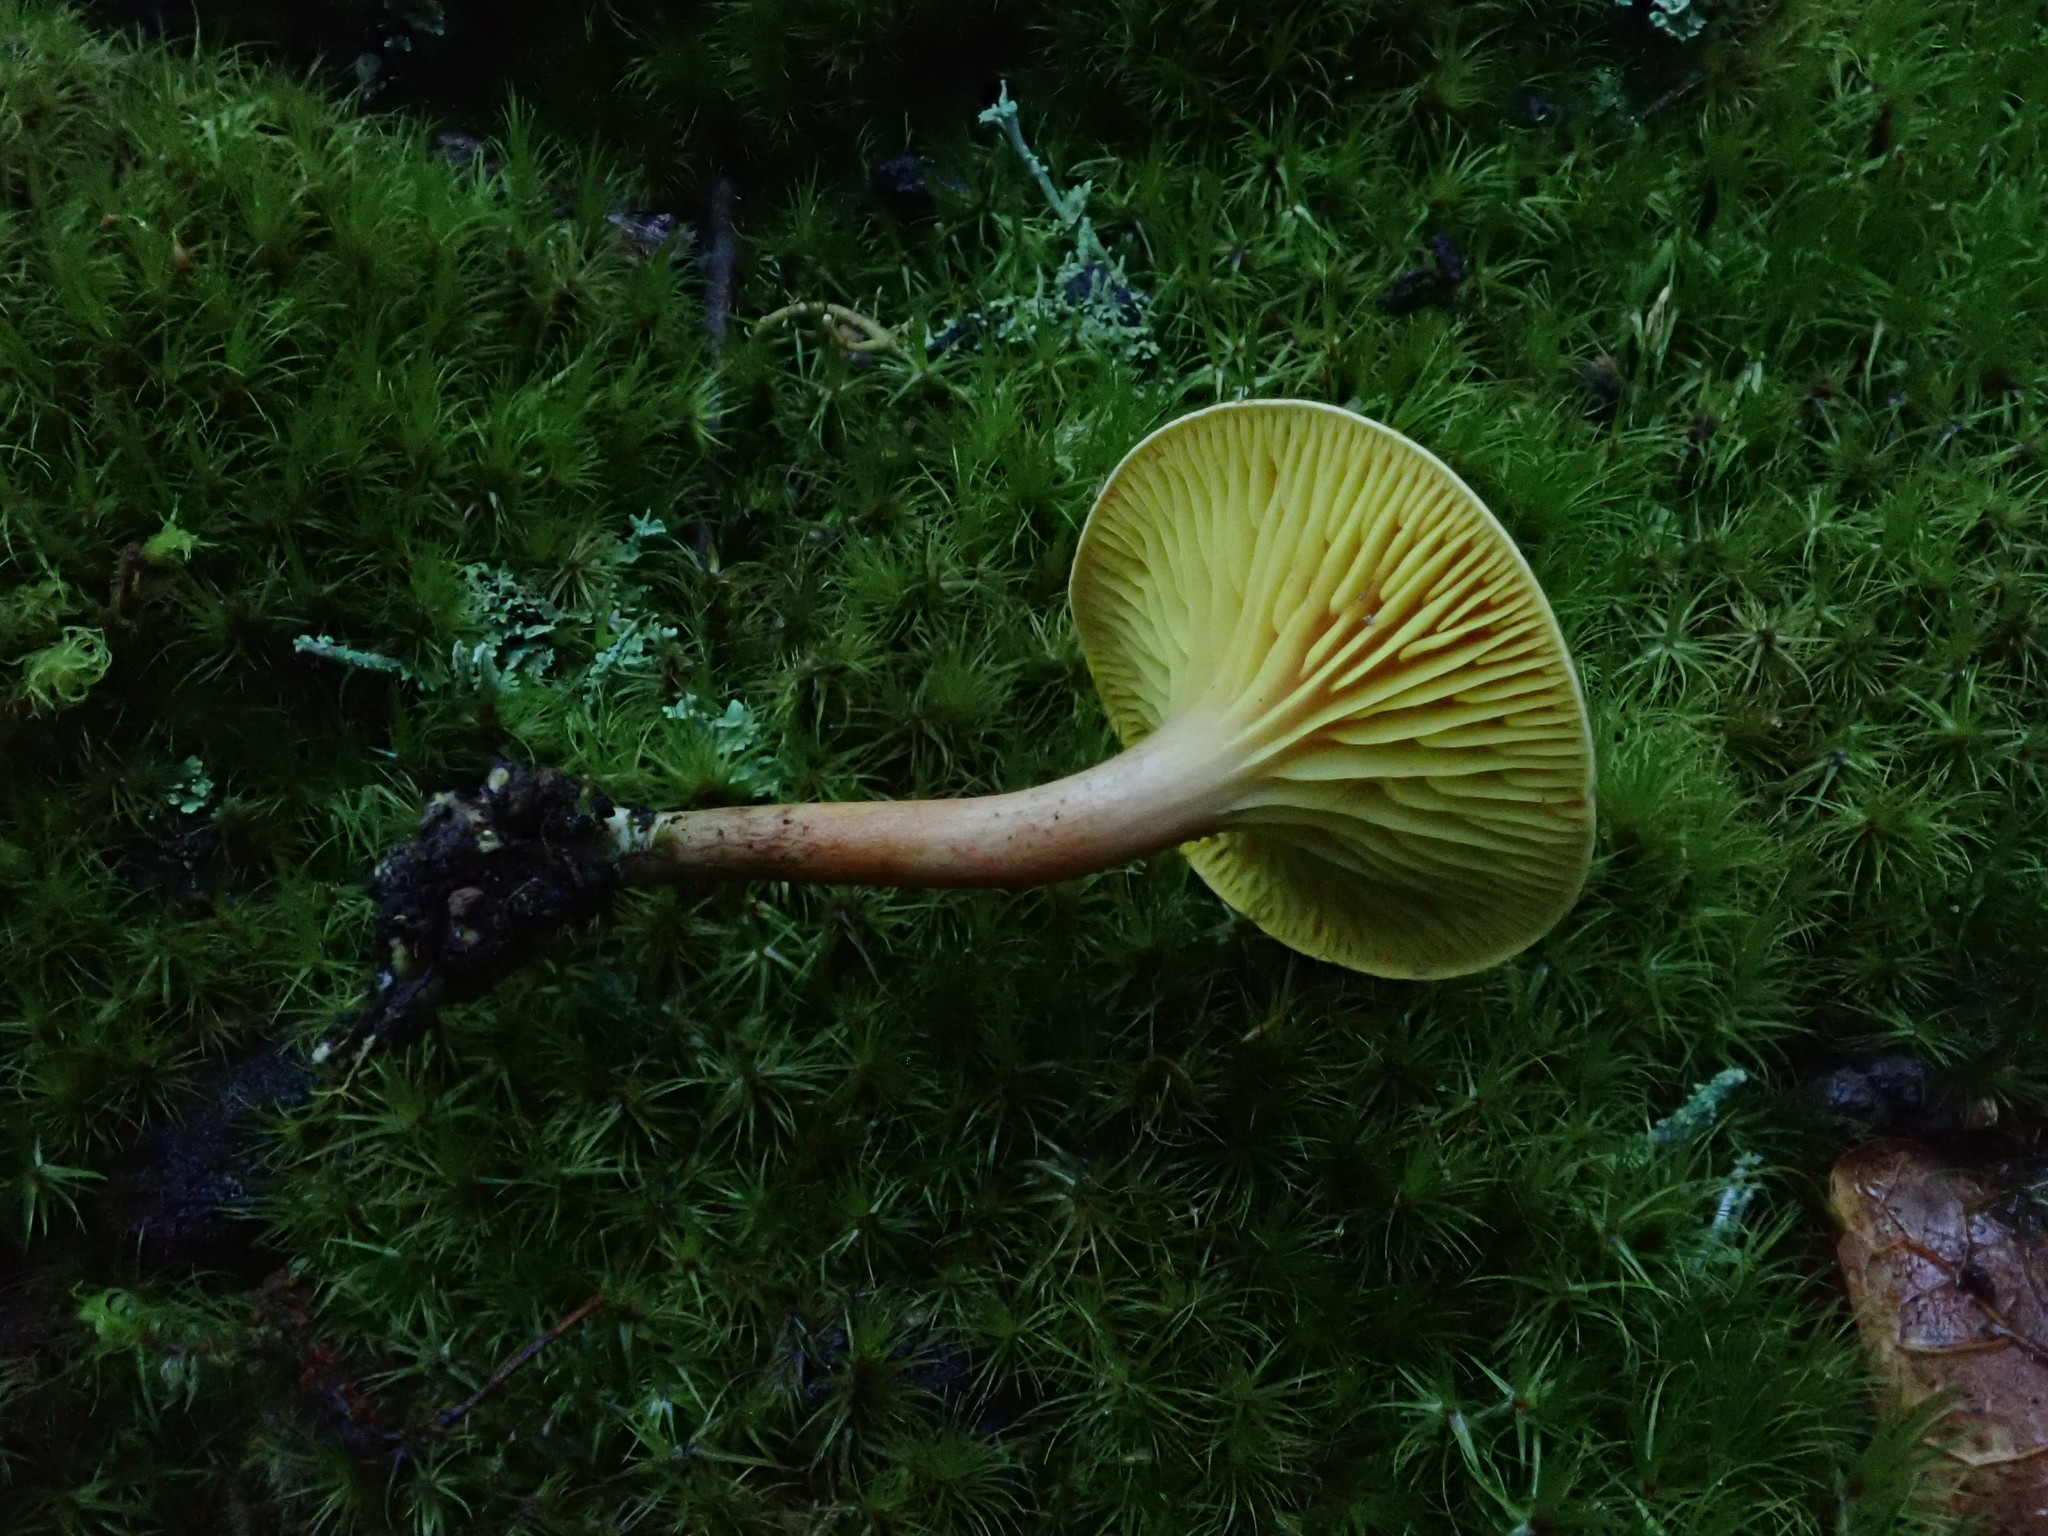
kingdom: Fungi
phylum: Basidiomycota
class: Agaricomycetes
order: Boletales
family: Boletaceae
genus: Phylloporus
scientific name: Phylloporus rhodoxanthus
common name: Golden gilled bolete
